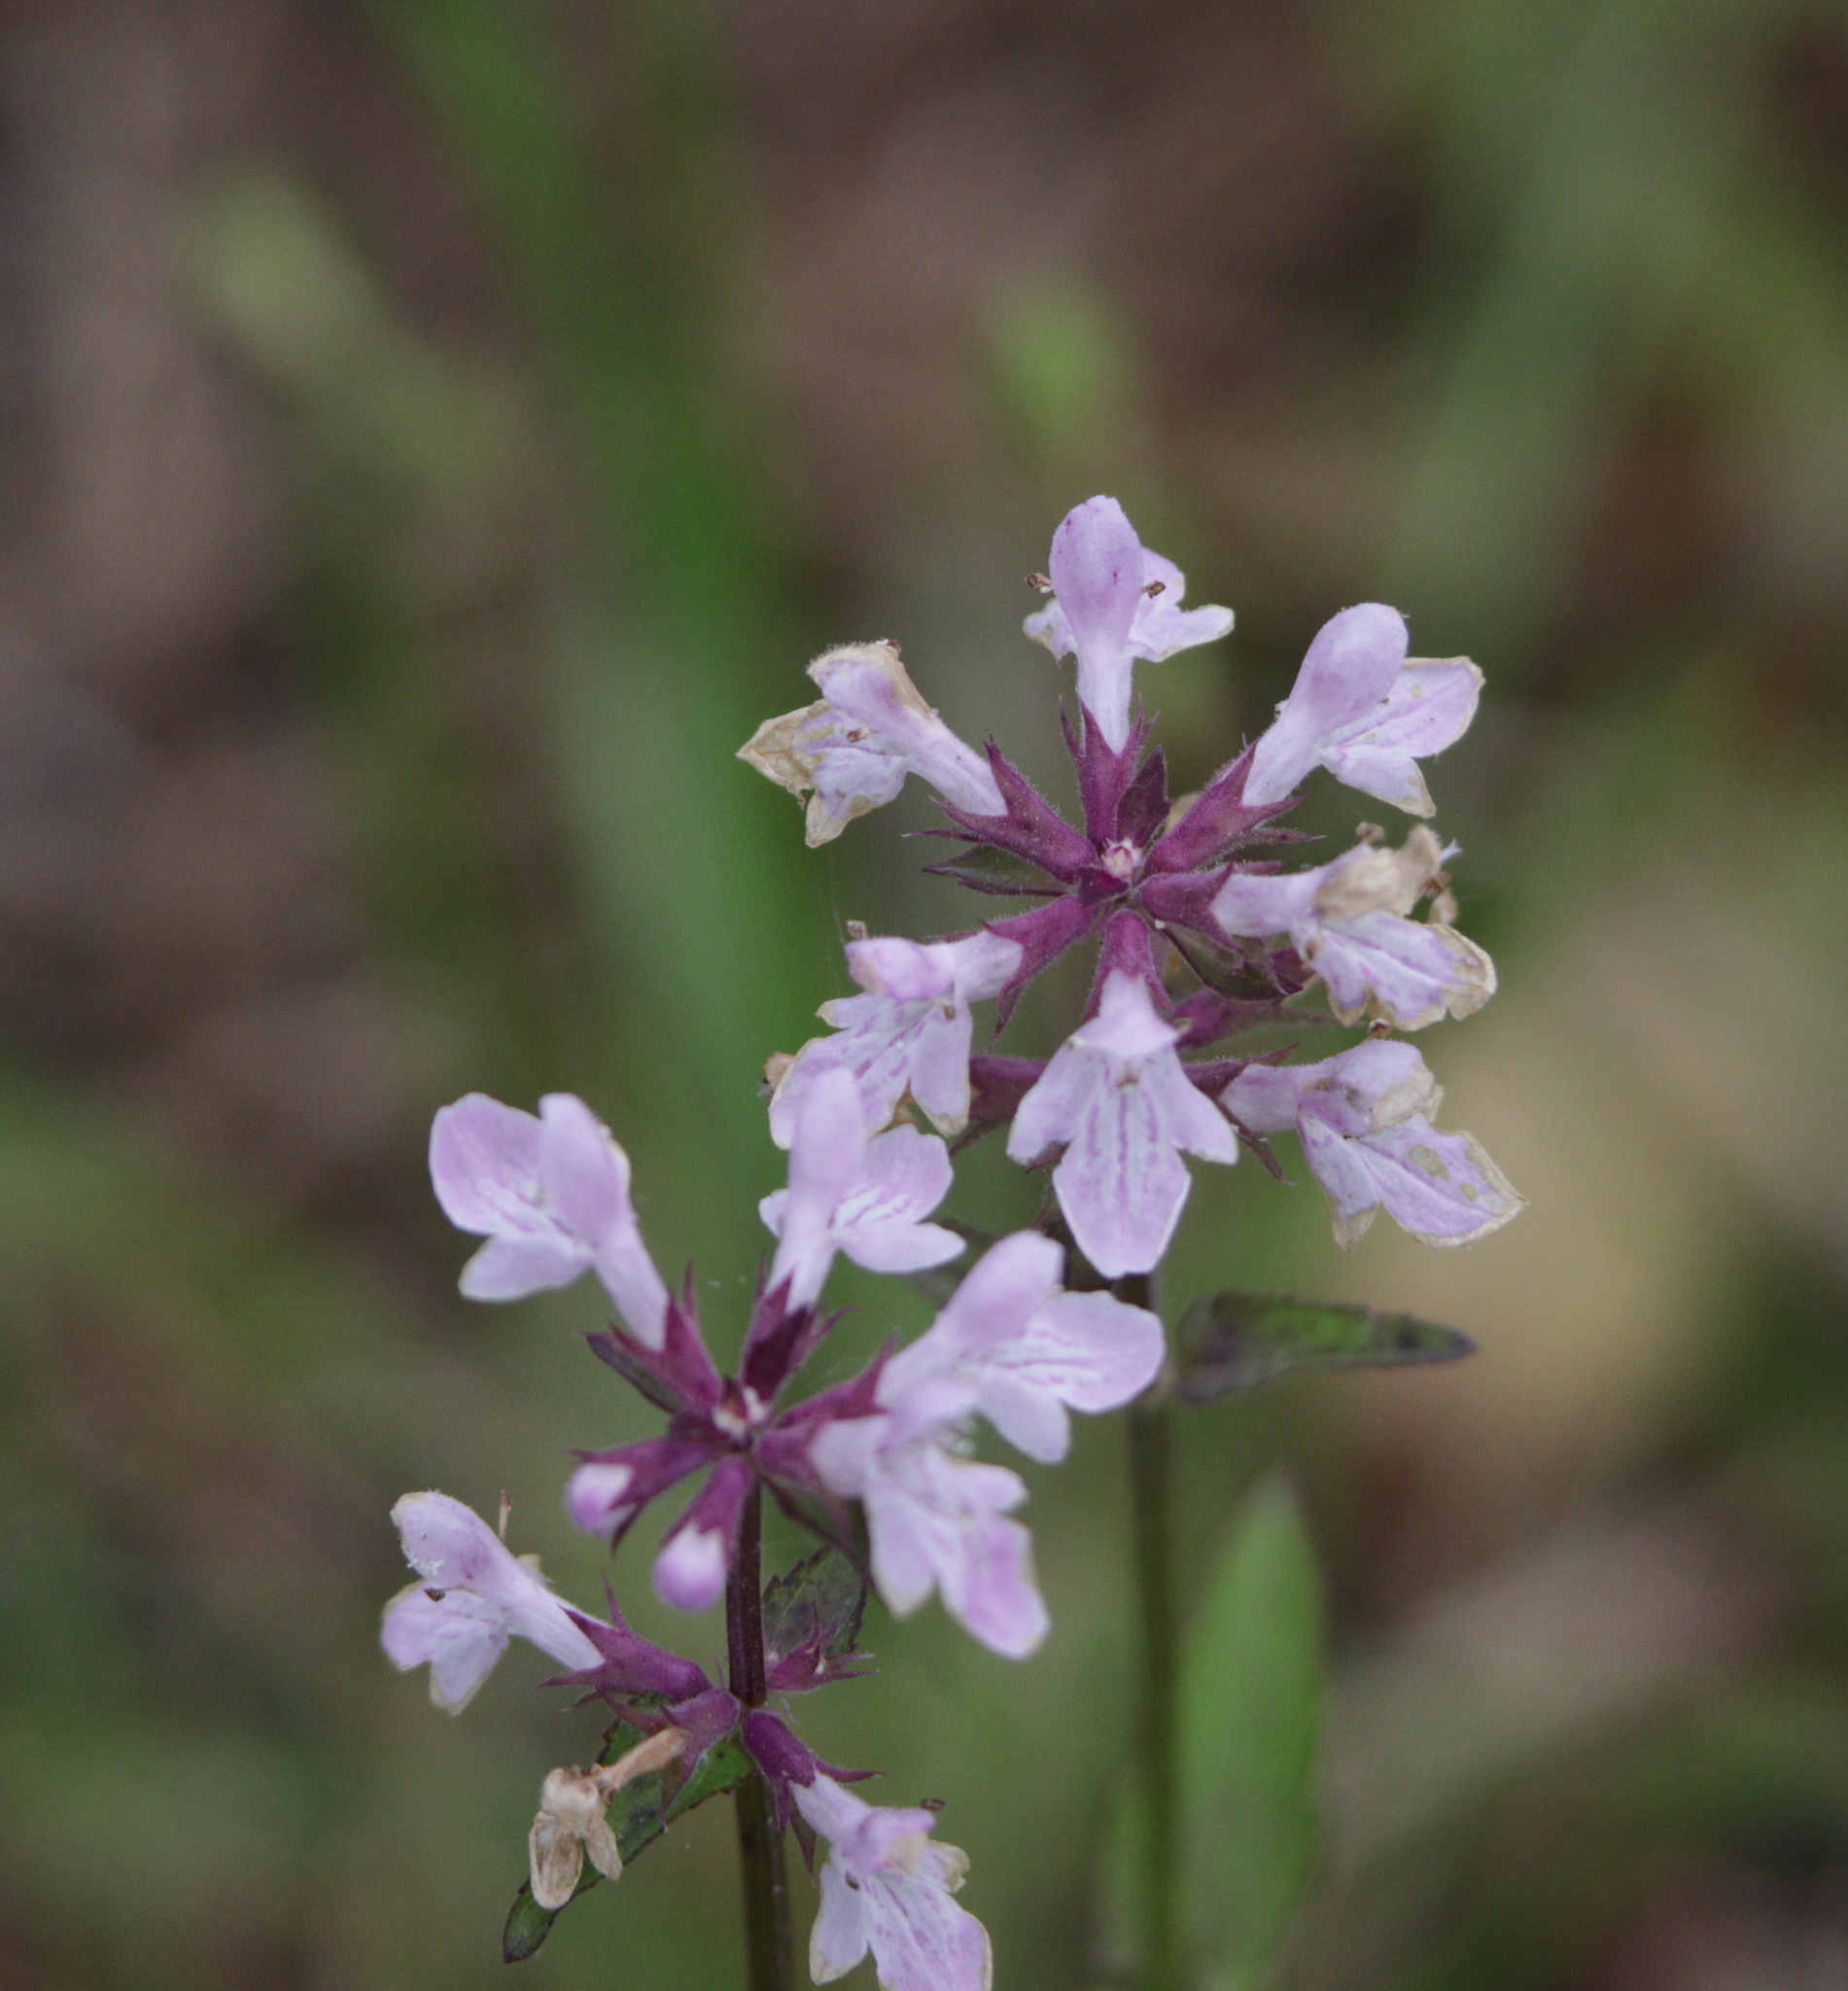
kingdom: Plantae
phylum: Tracheophyta
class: Magnoliopsida
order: Lamiales
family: Lamiaceae
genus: Stachys
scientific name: Stachys floridana
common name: Florida betony
